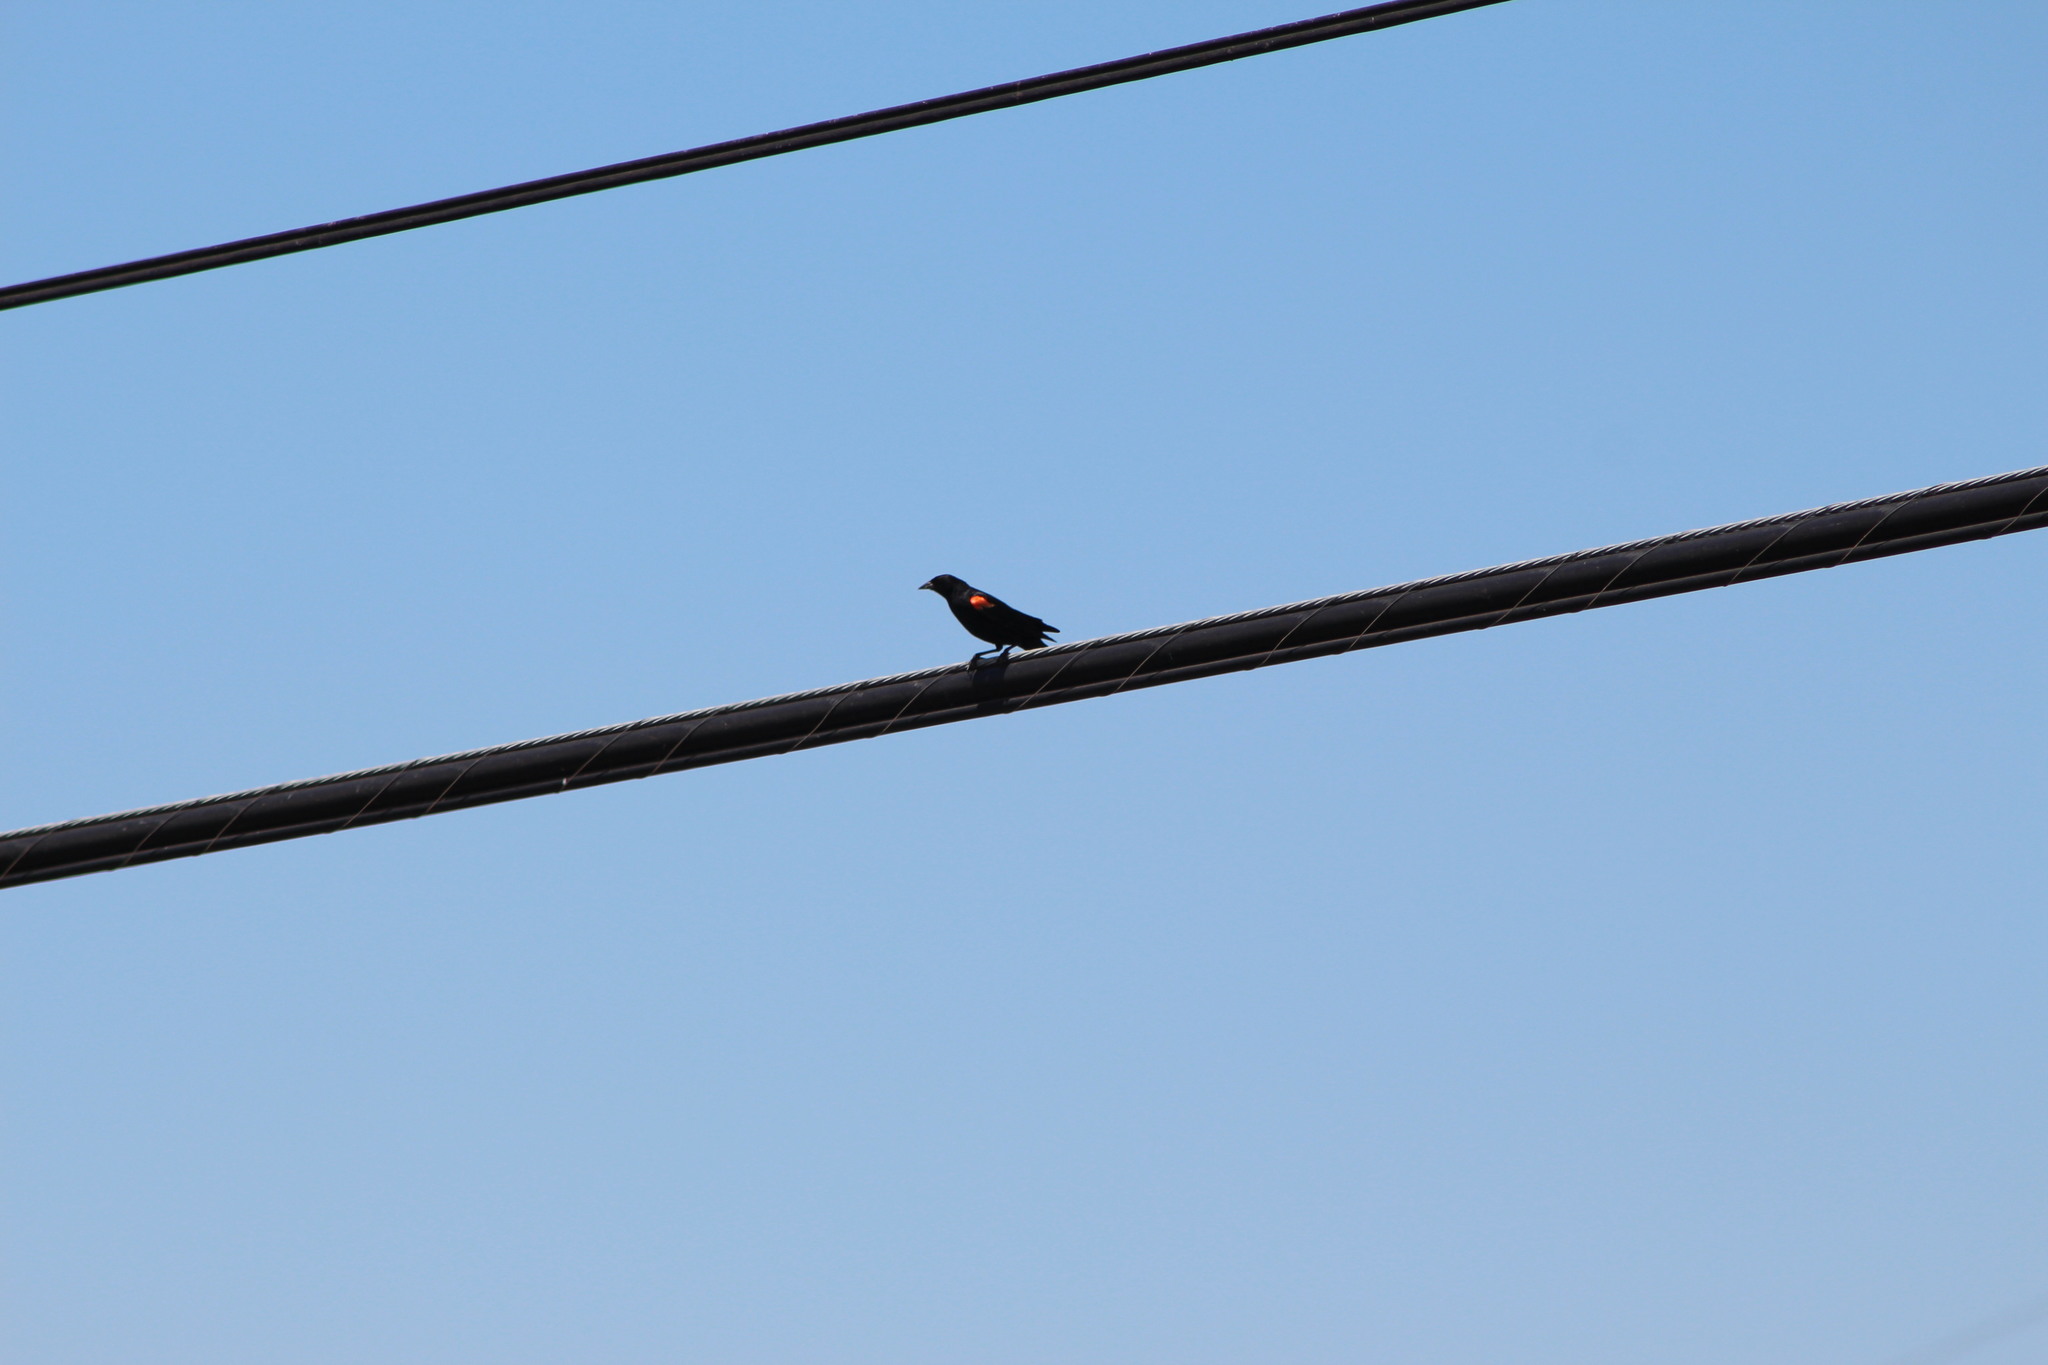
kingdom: Animalia
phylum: Chordata
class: Aves
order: Passeriformes
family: Icteridae
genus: Agelaius
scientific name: Agelaius phoeniceus
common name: Red-winged blackbird
